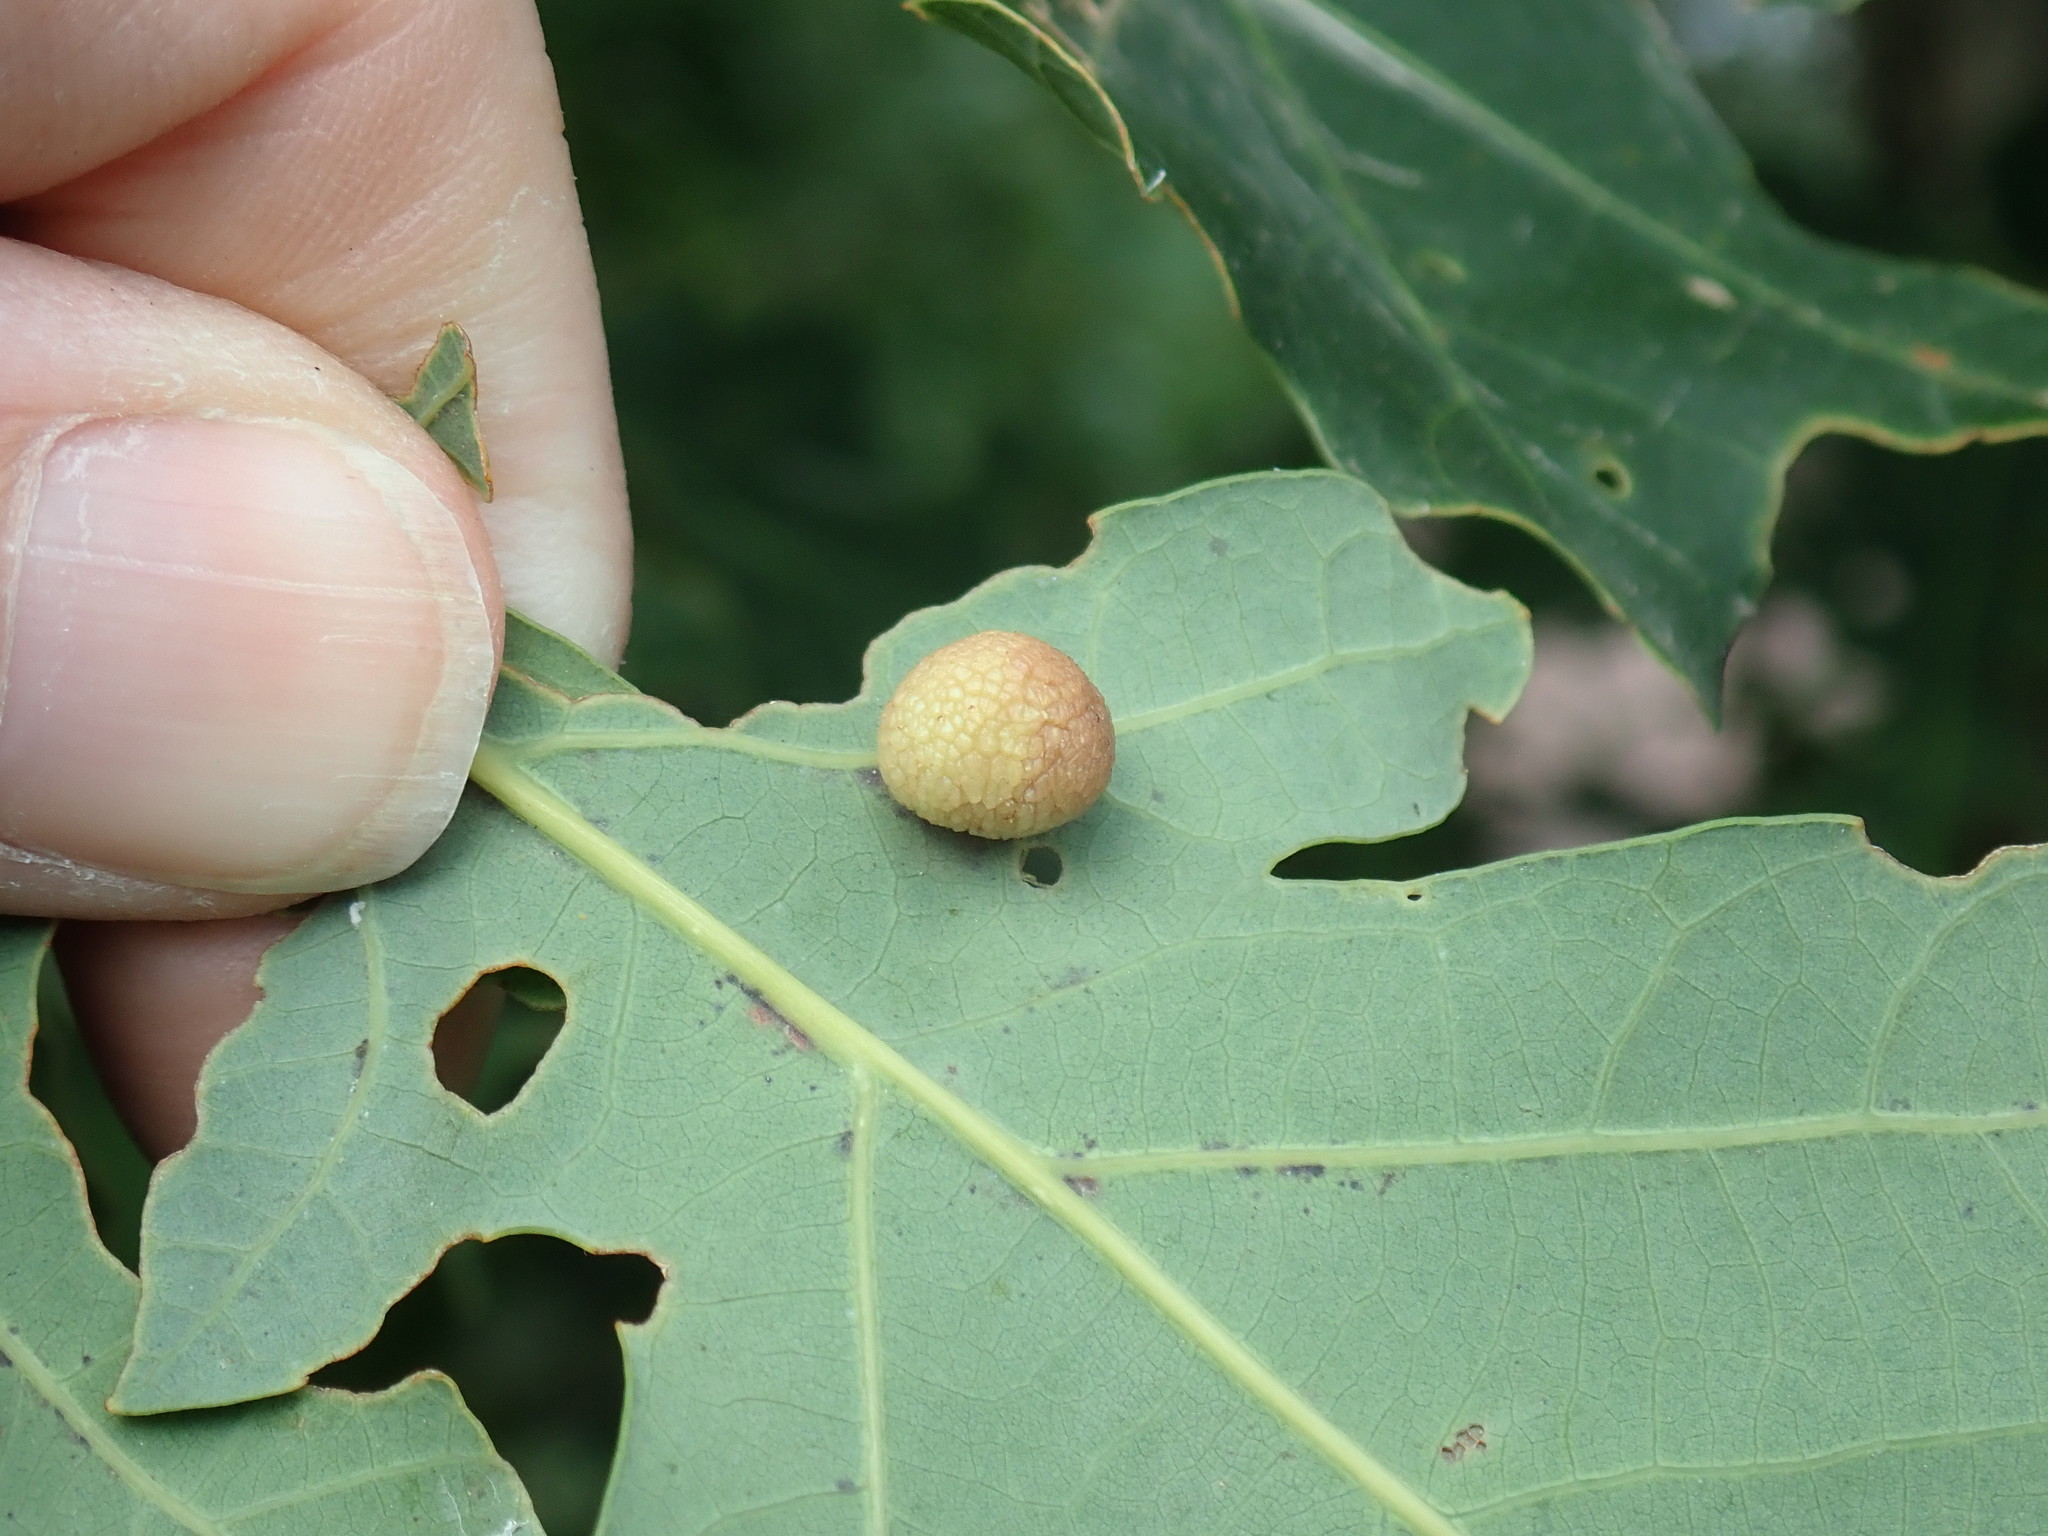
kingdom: Animalia
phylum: Arthropoda
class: Insecta
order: Hymenoptera
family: Cynipidae
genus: Acraspis
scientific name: Acraspis
